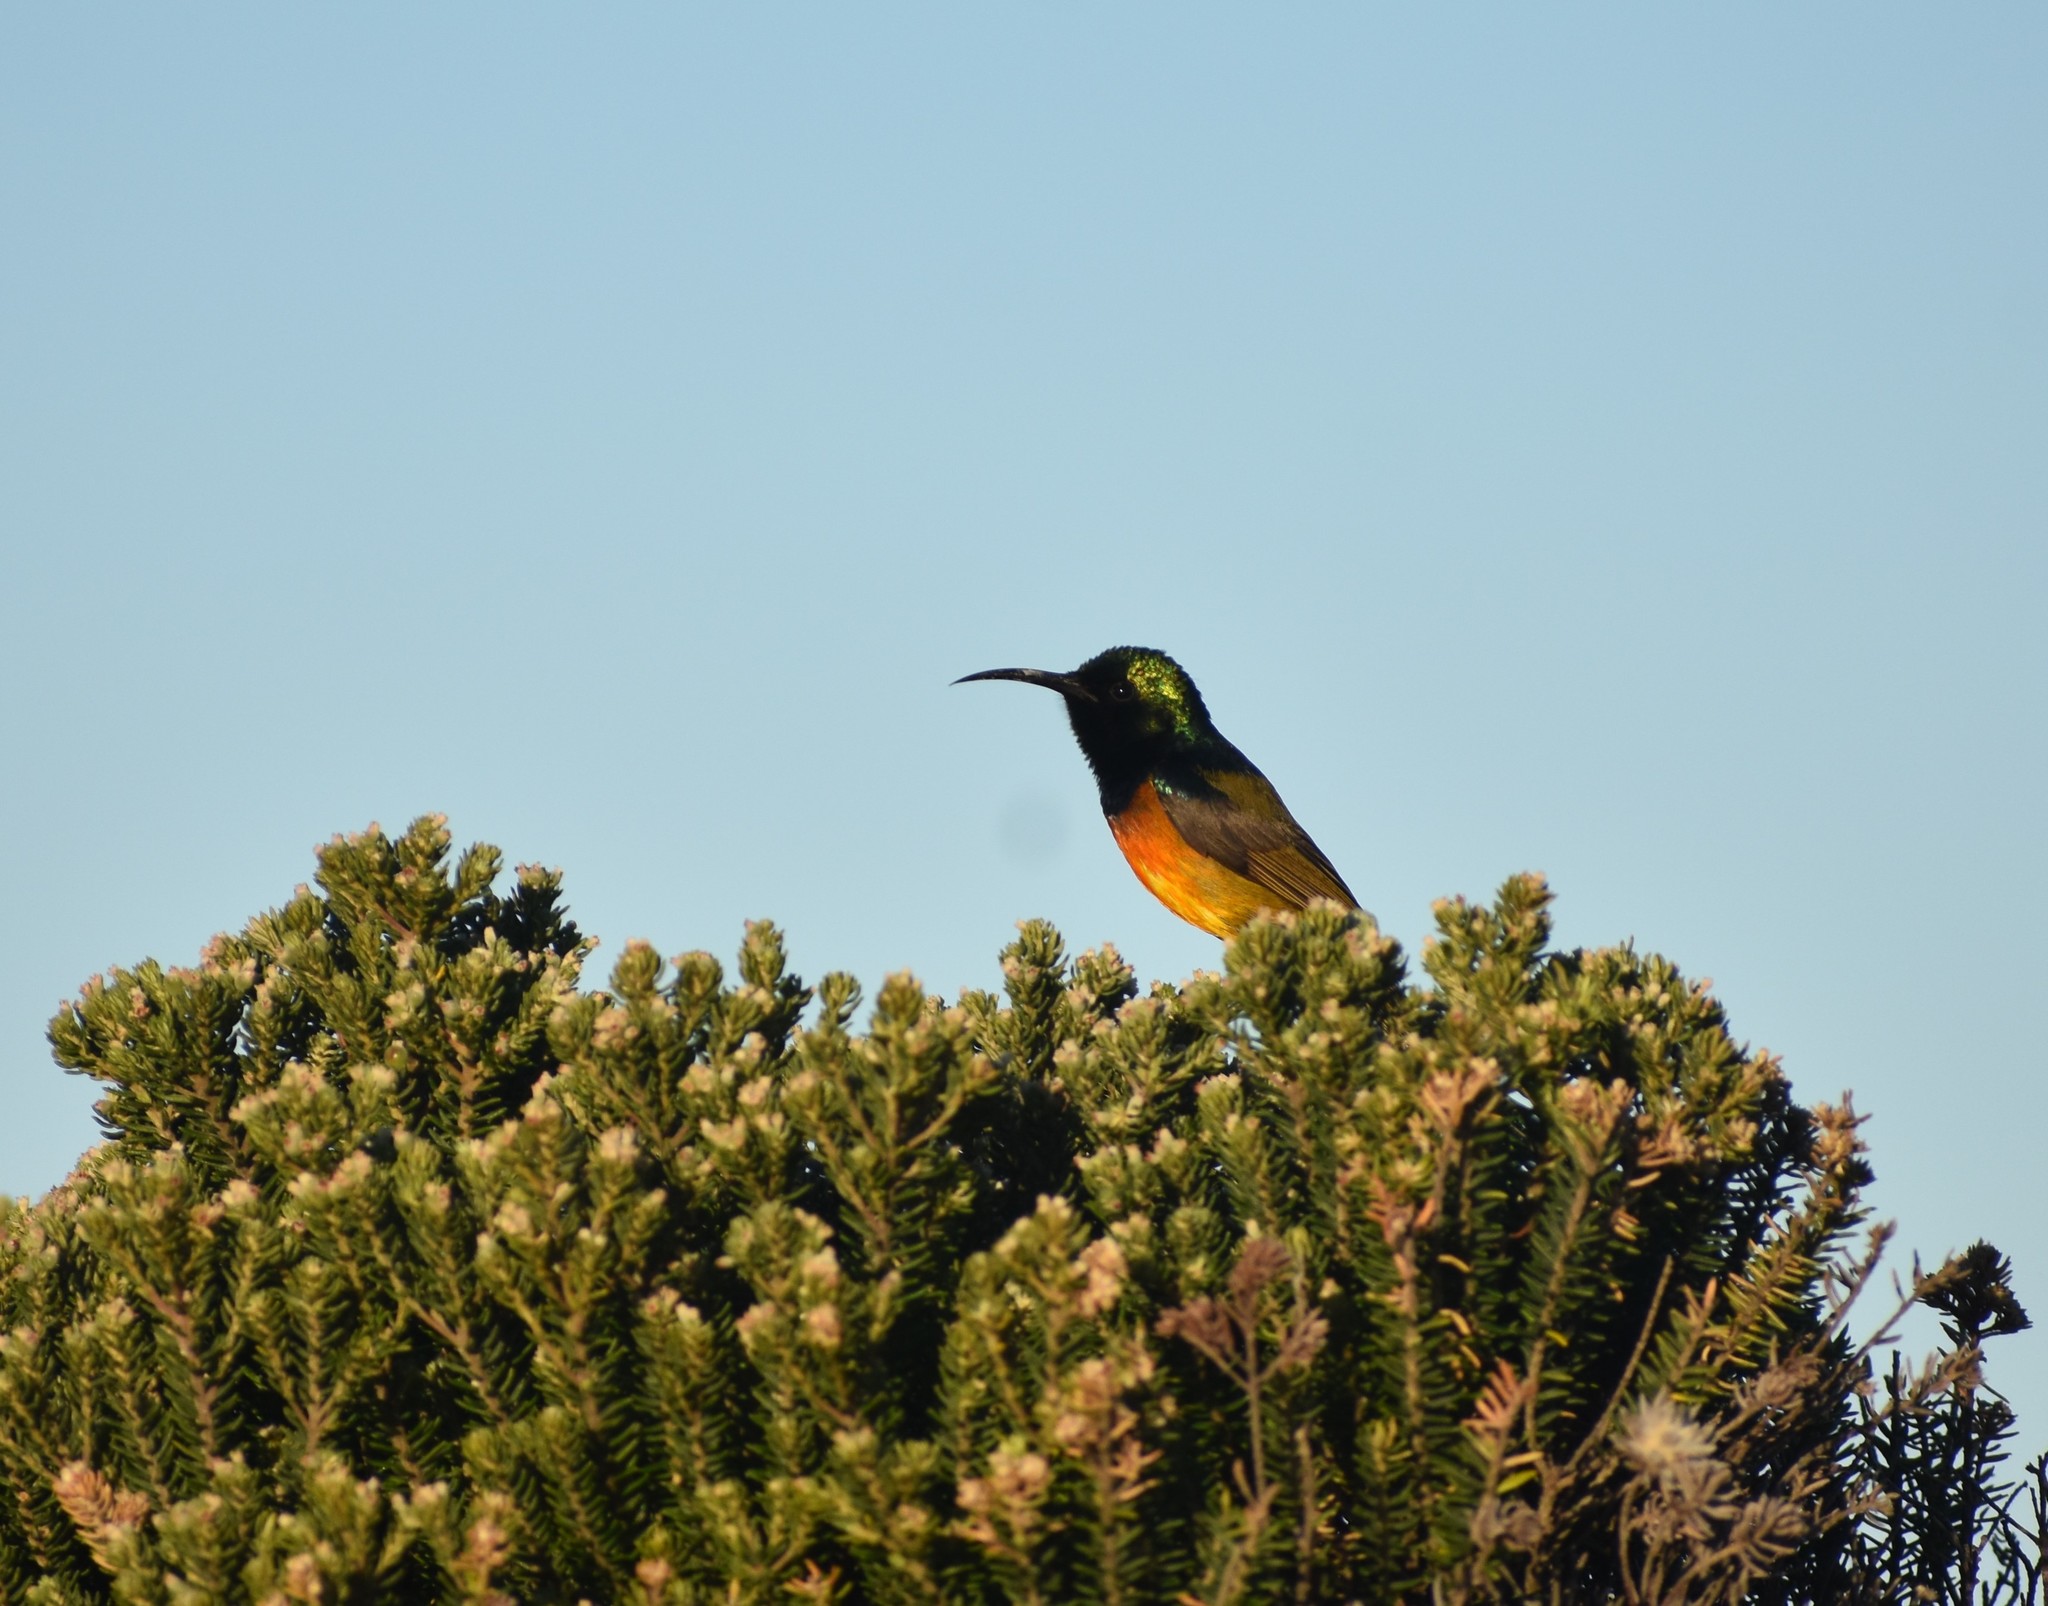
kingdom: Animalia
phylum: Chordata
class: Aves
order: Passeriformes
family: Nectariniidae
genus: Anthobaphes
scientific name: Anthobaphes violacea
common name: Orange-breasted sunbird
